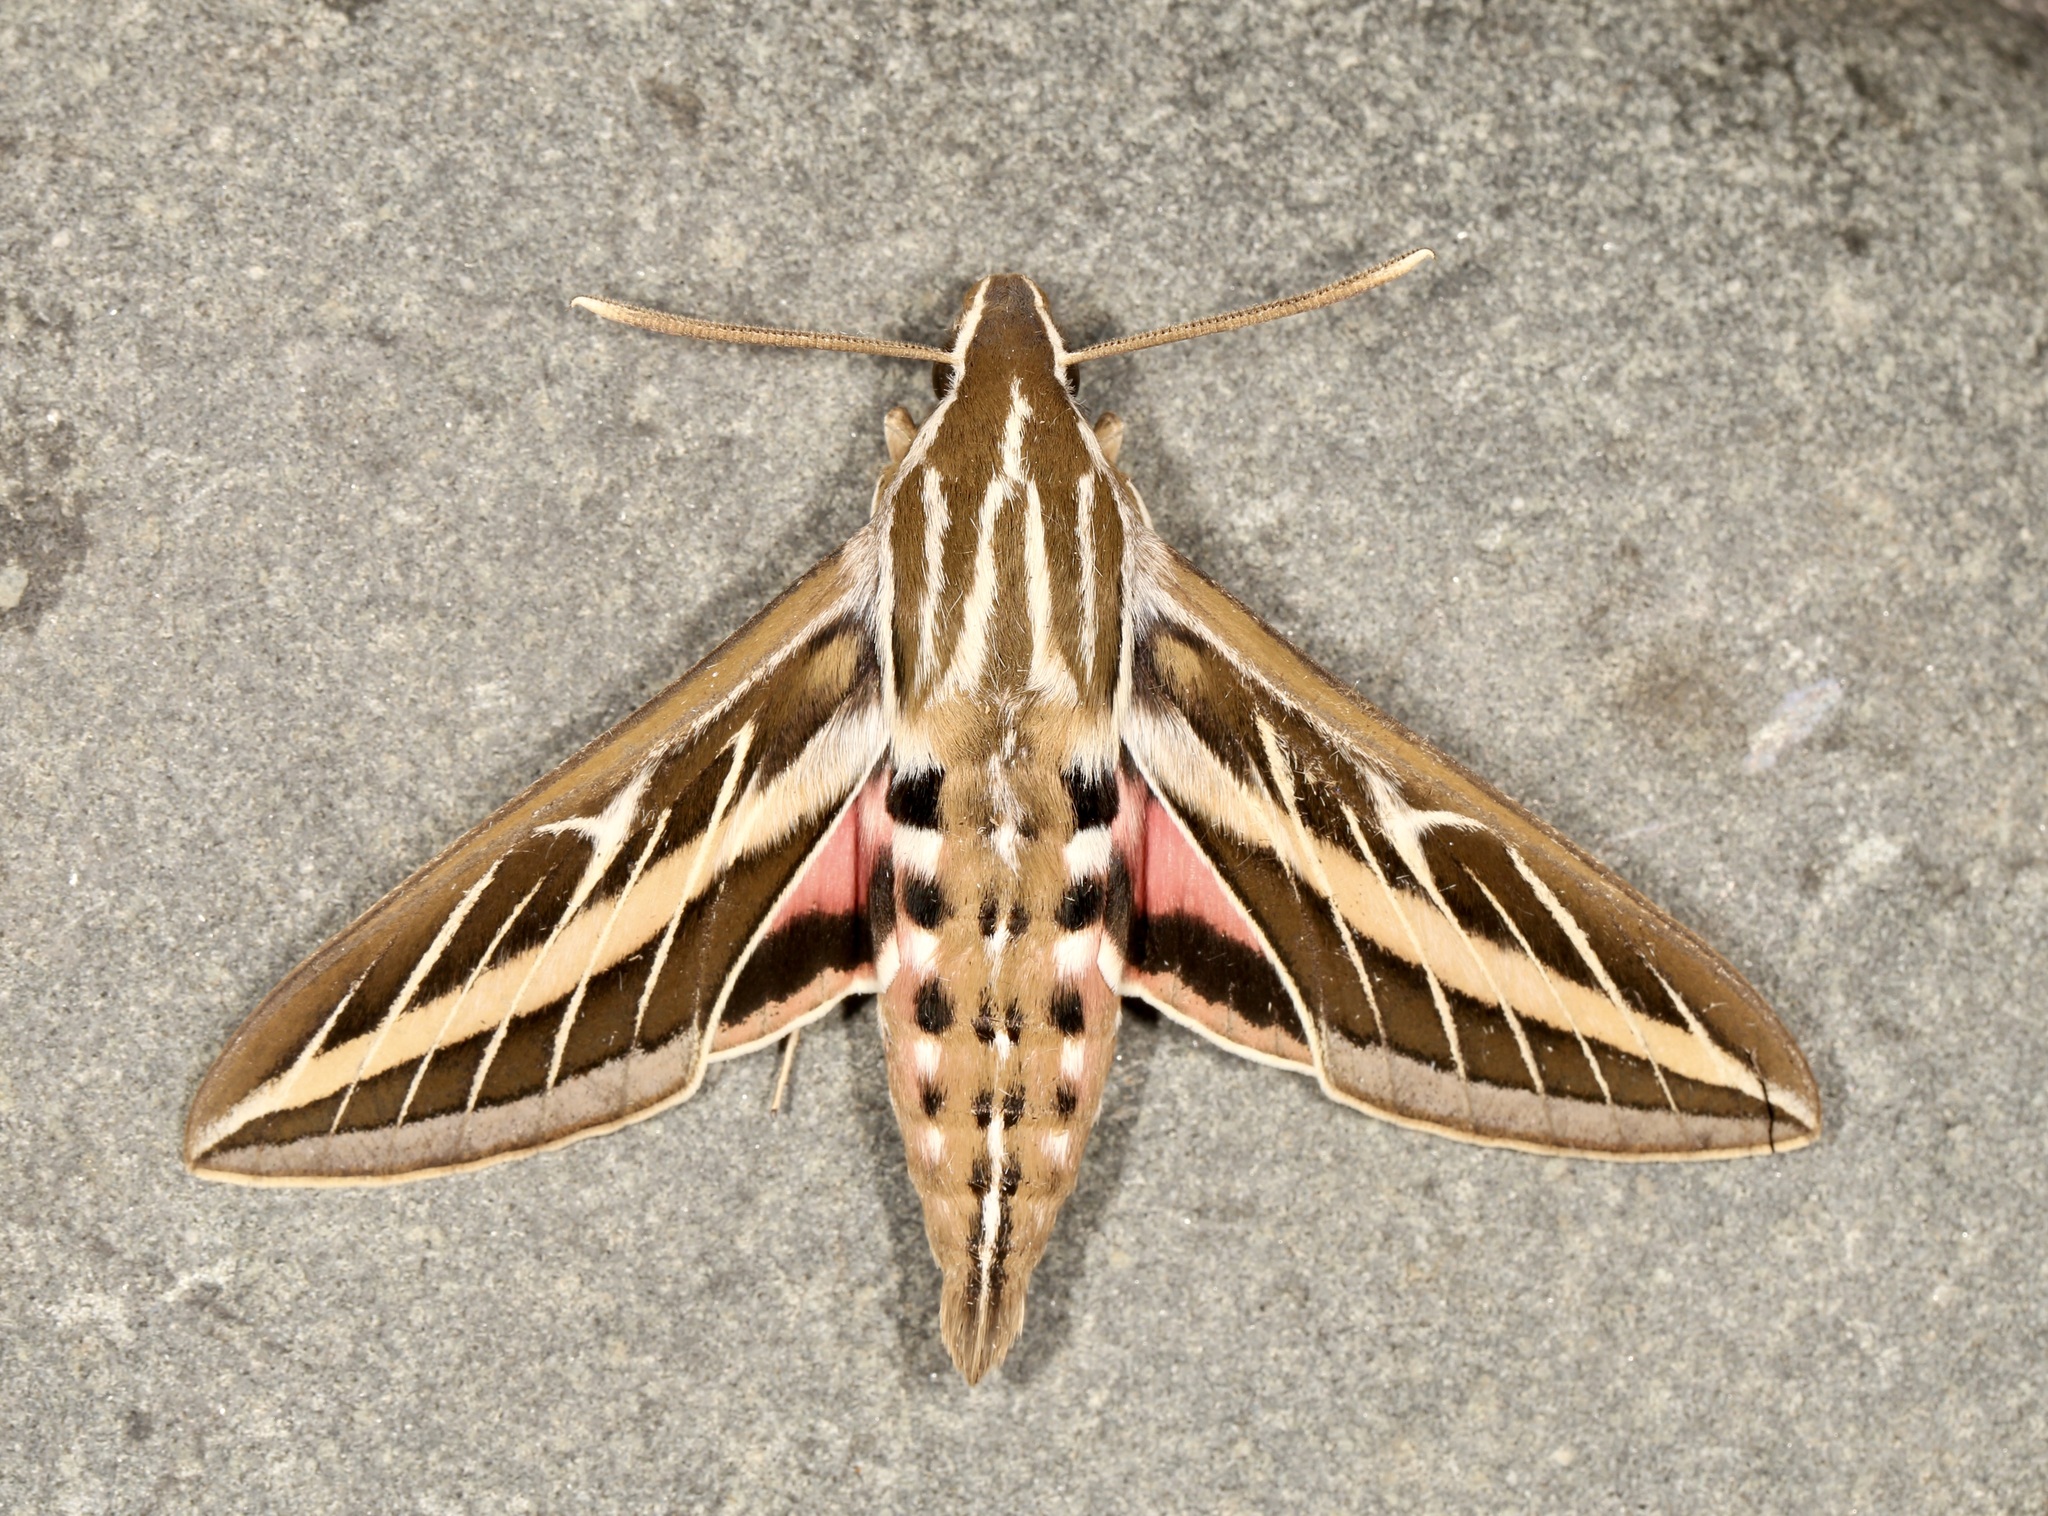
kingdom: Animalia
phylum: Arthropoda
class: Insecta
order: Lepidoptera
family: Sphingidae
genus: Hyles
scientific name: Hyles lineata
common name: White-lined sphinx
